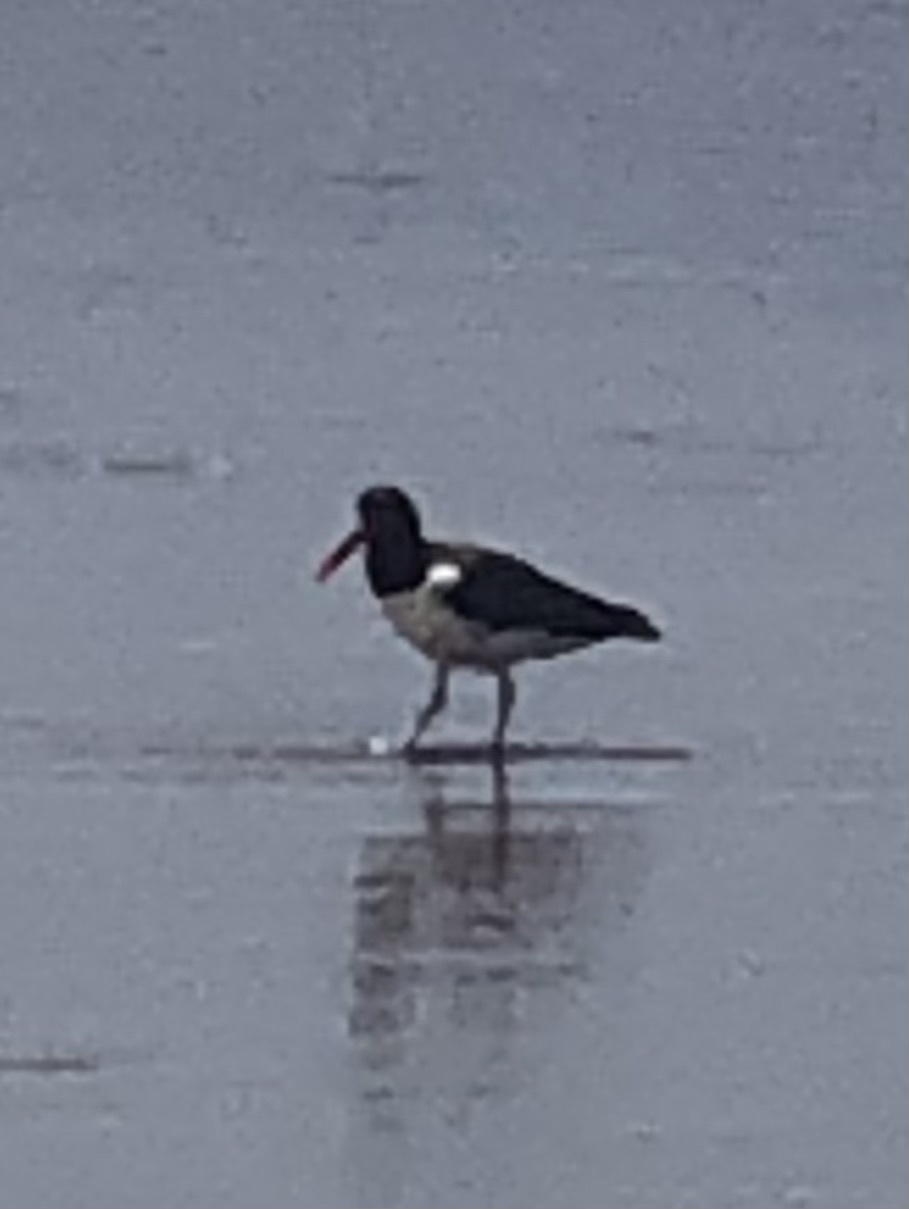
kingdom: Animalia
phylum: Chordata
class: Aves
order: Charadriiformes
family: Haematopodidae
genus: Haematopus
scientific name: Haematopus palliatus
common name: American oystercatcher
